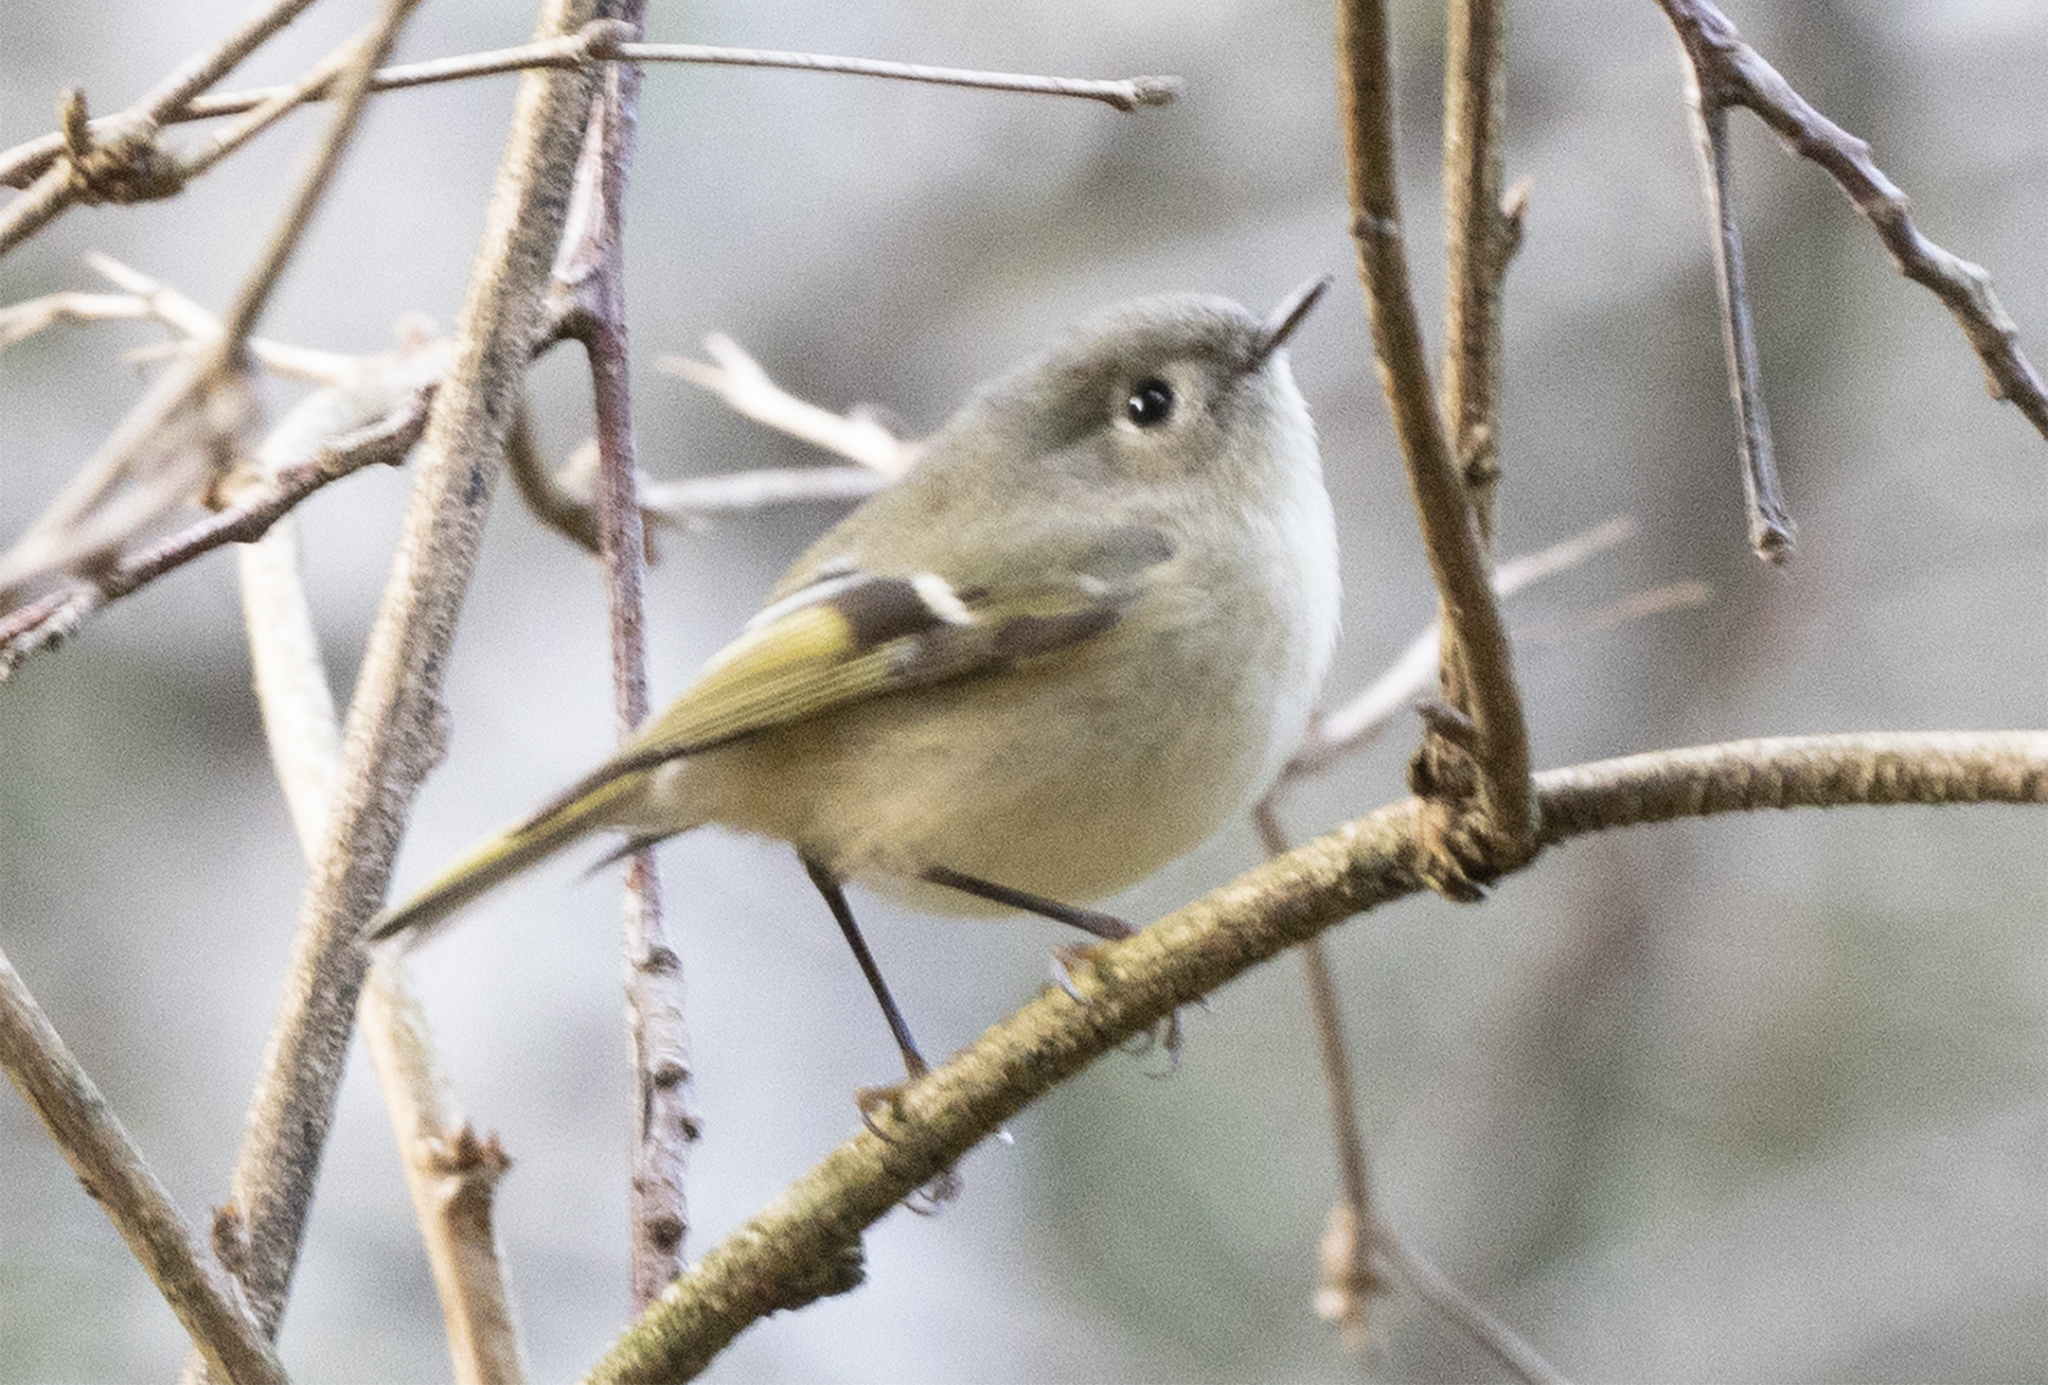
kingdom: Animalia
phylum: Chordata
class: Aves
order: Passeriformes
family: Regulidae
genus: Regulus
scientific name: Regulus calendula
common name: Ruby-crowned kinglet
